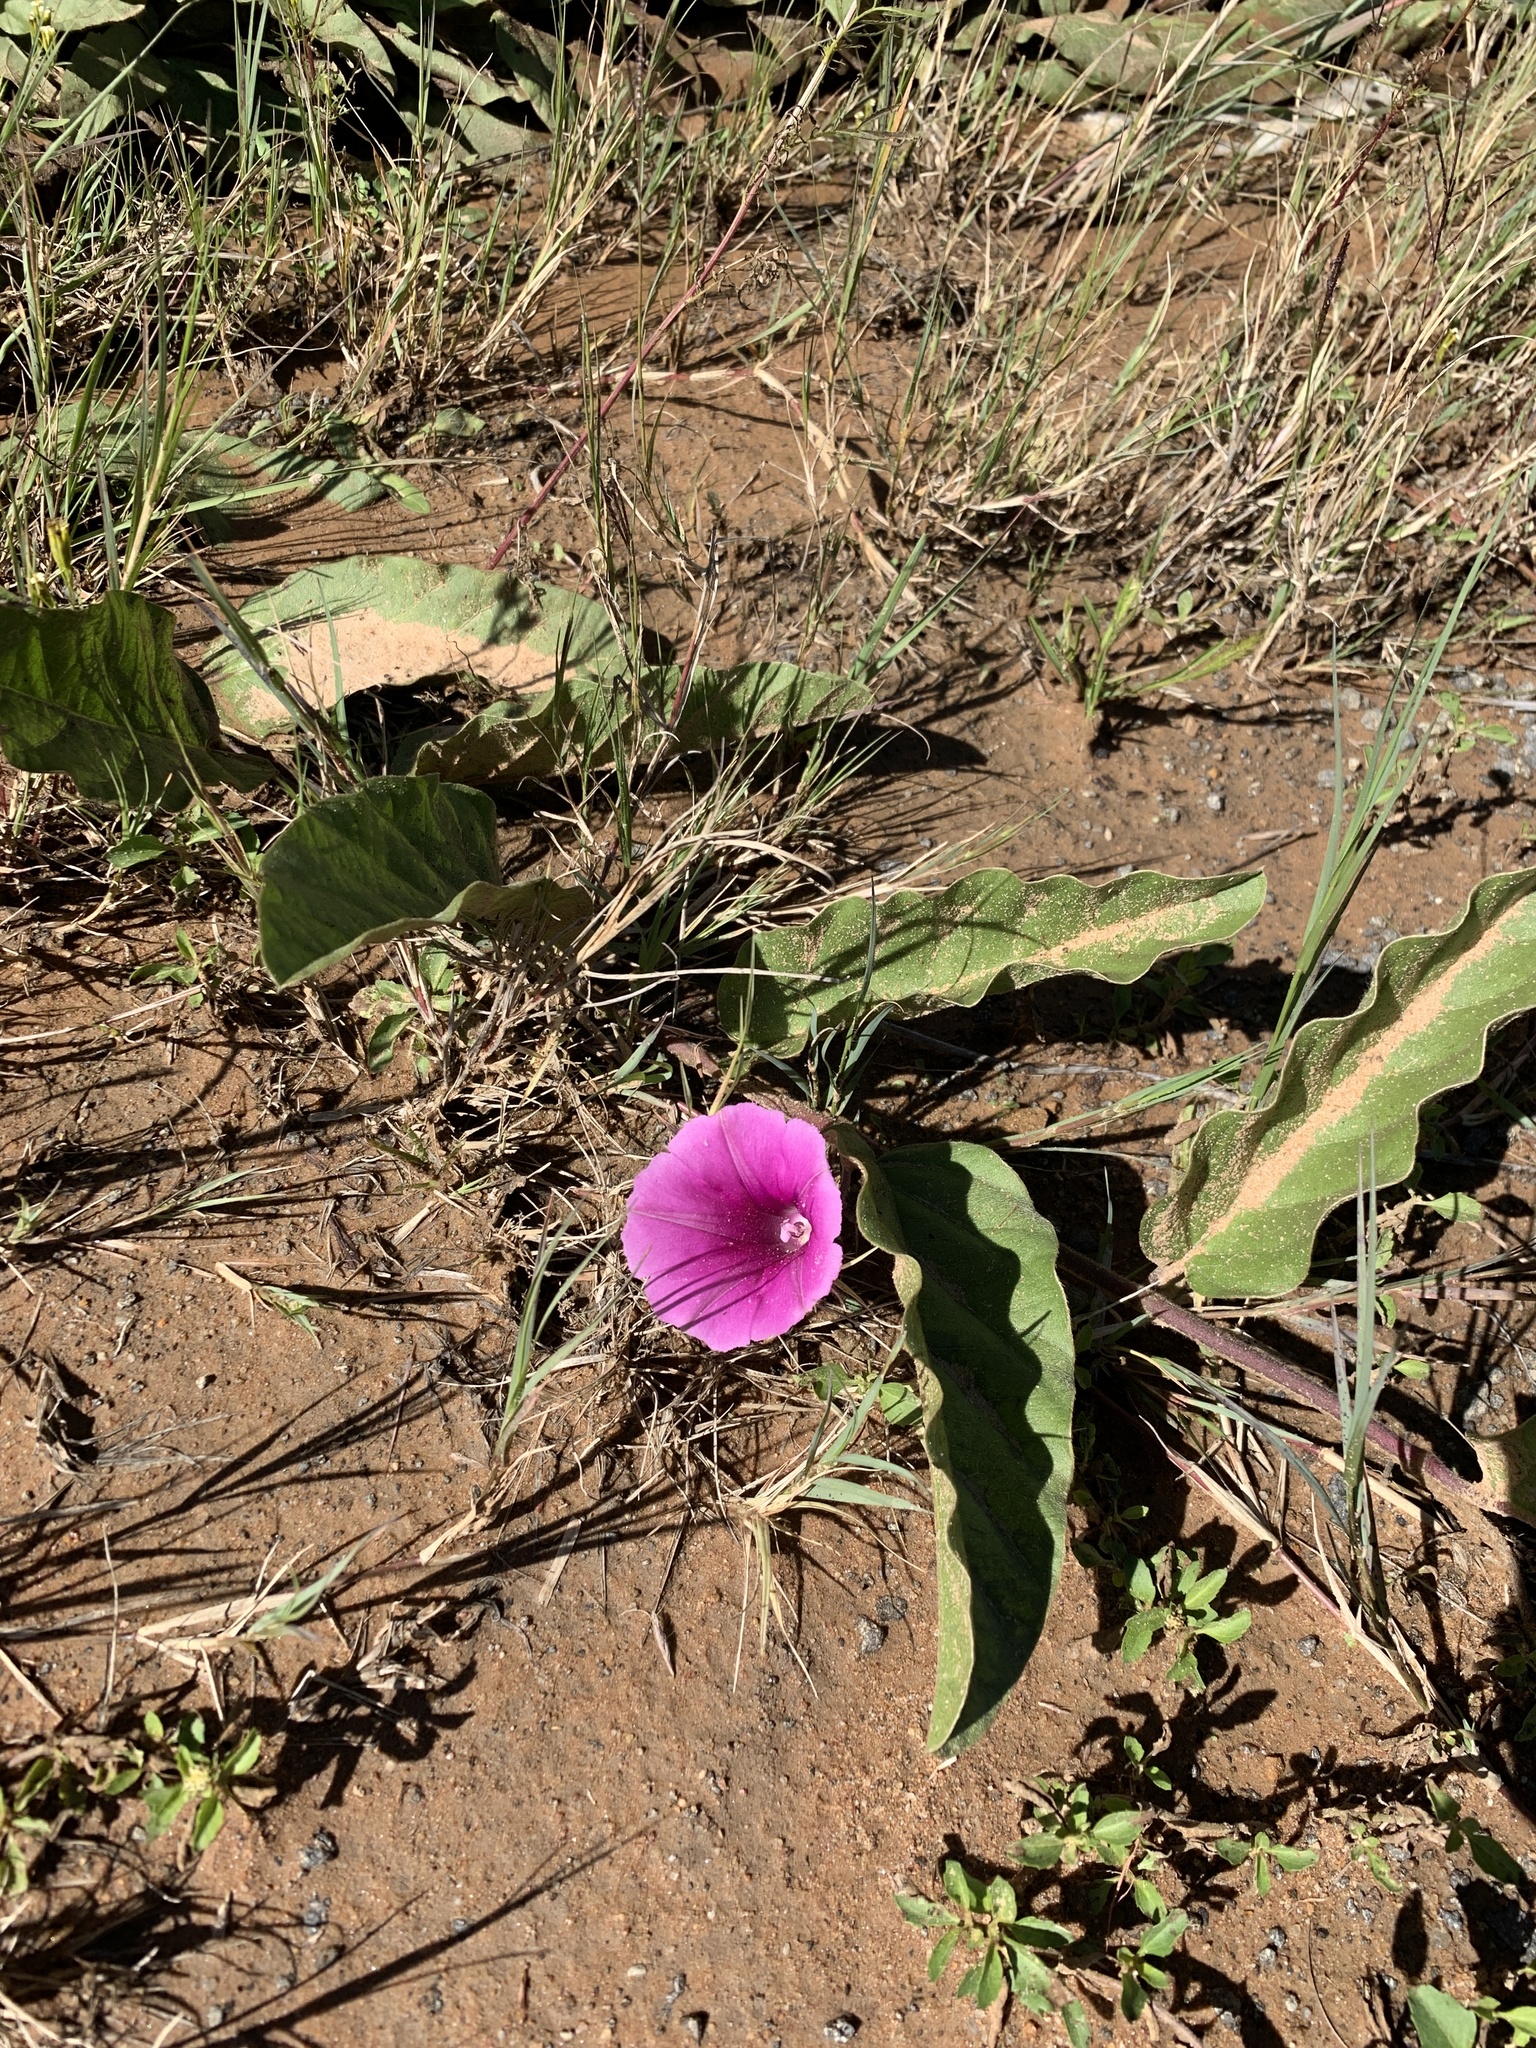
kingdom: Plantae
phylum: Tracheophyta
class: Magnoliopsida
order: Solanales
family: Convolvulaceae
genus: Ipomoea
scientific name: Ipomoea ommanneyi
